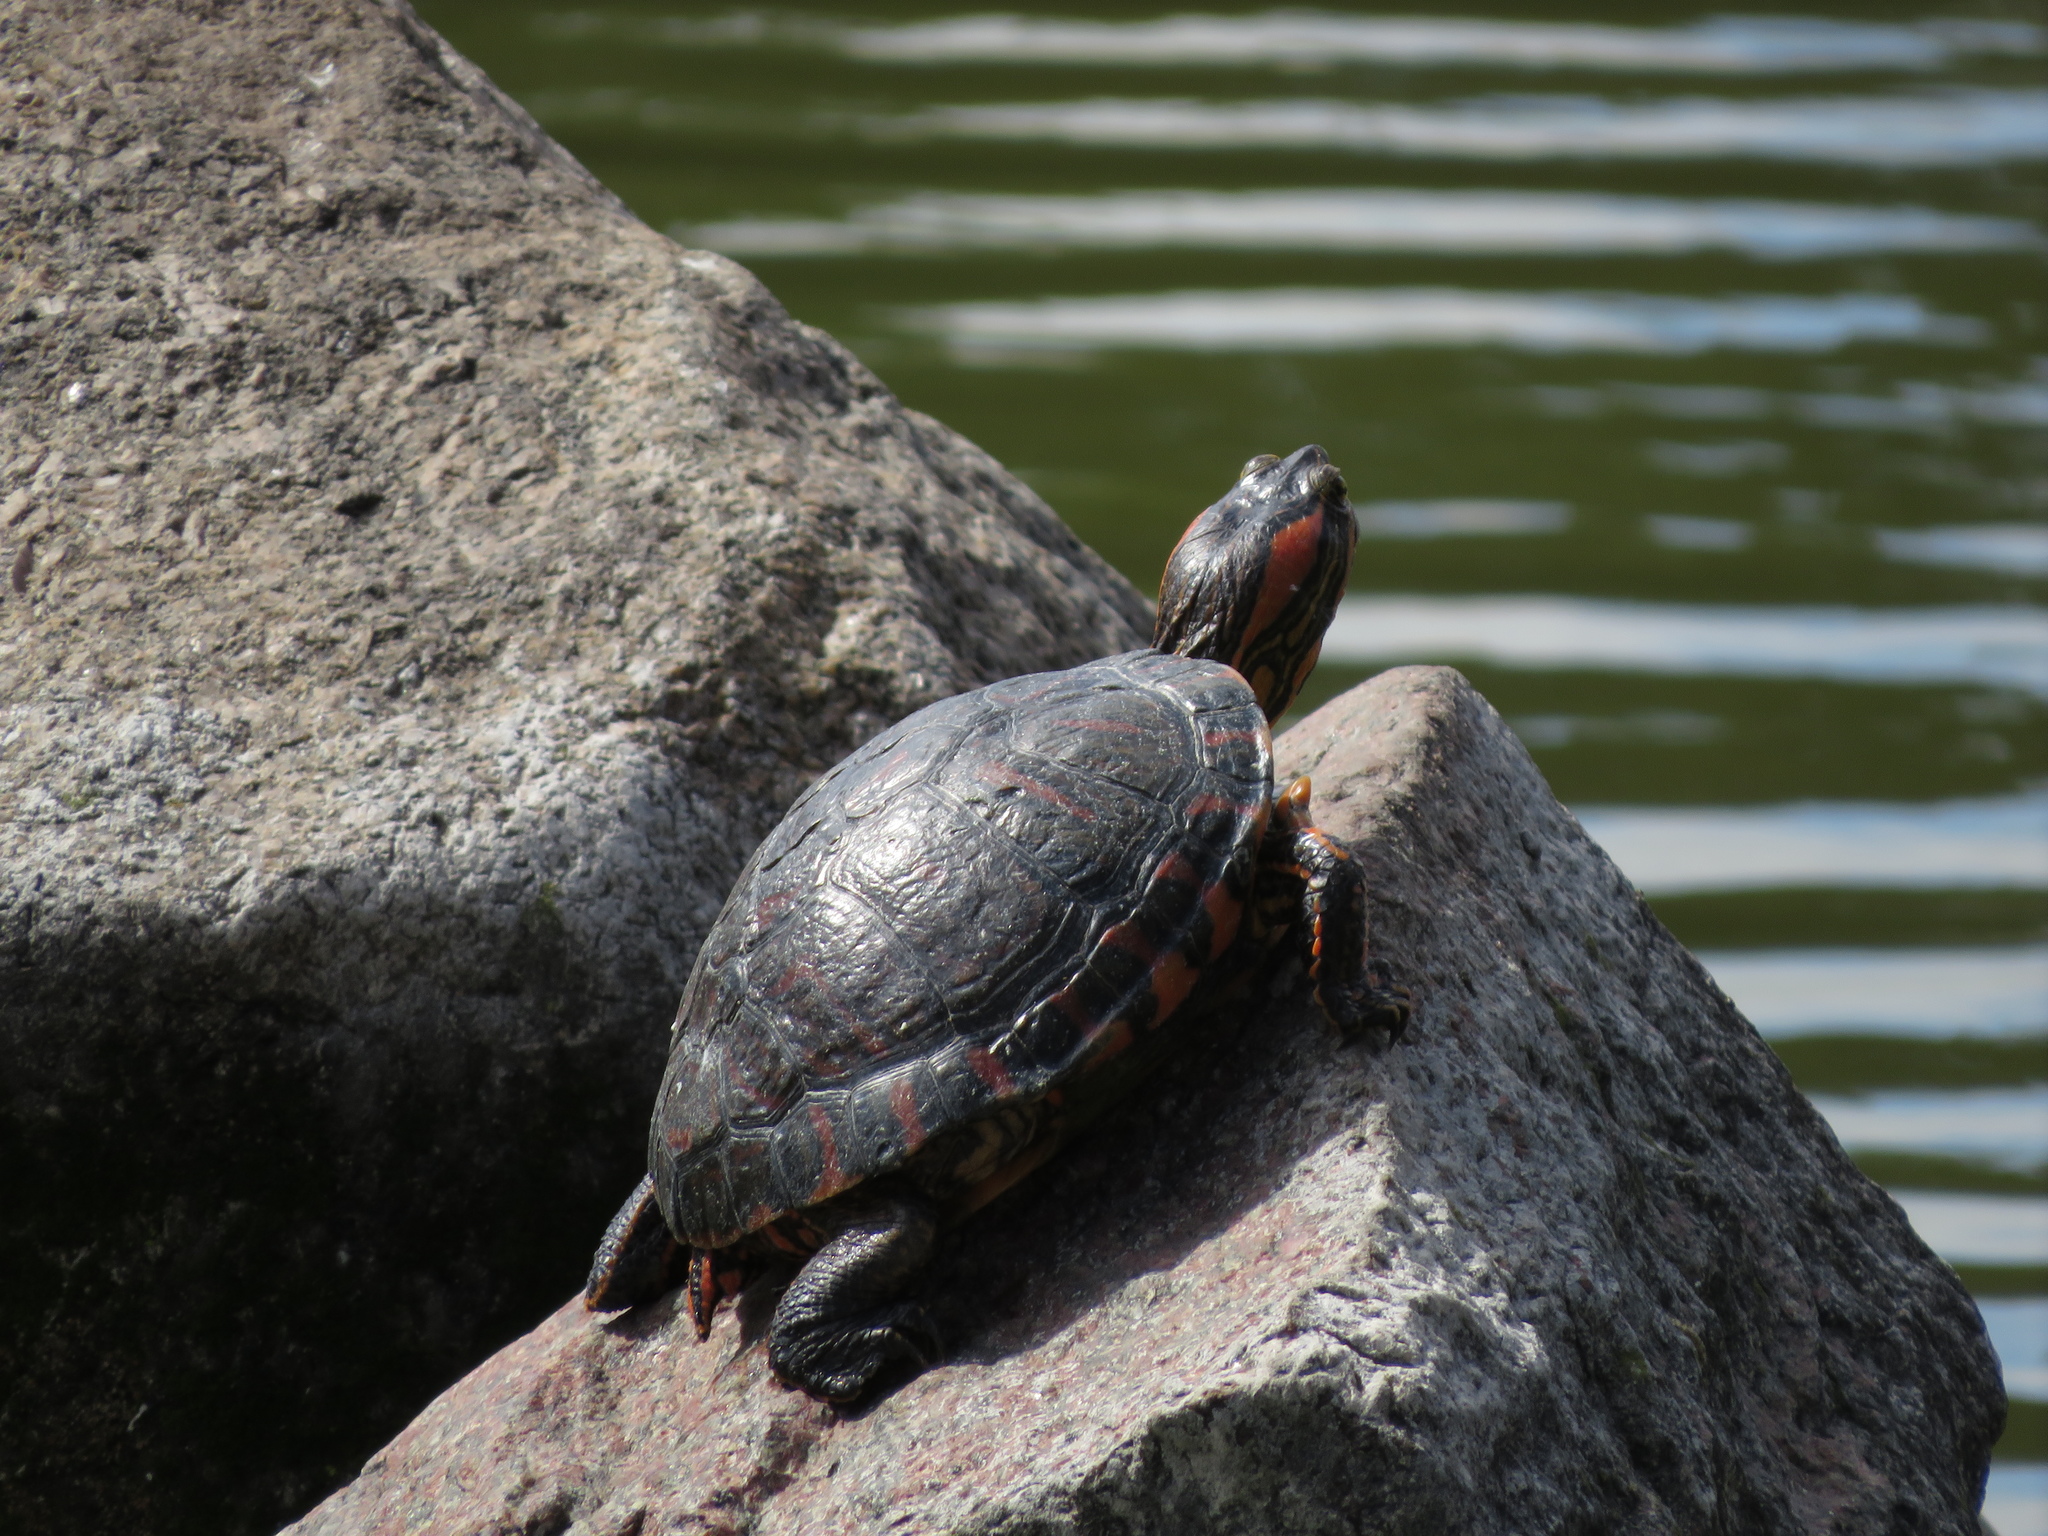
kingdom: Animalia
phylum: Chordata
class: Testudines
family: Emydidae
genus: Trachemys
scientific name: Trachemys dorbigni
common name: Black-bellied slider
